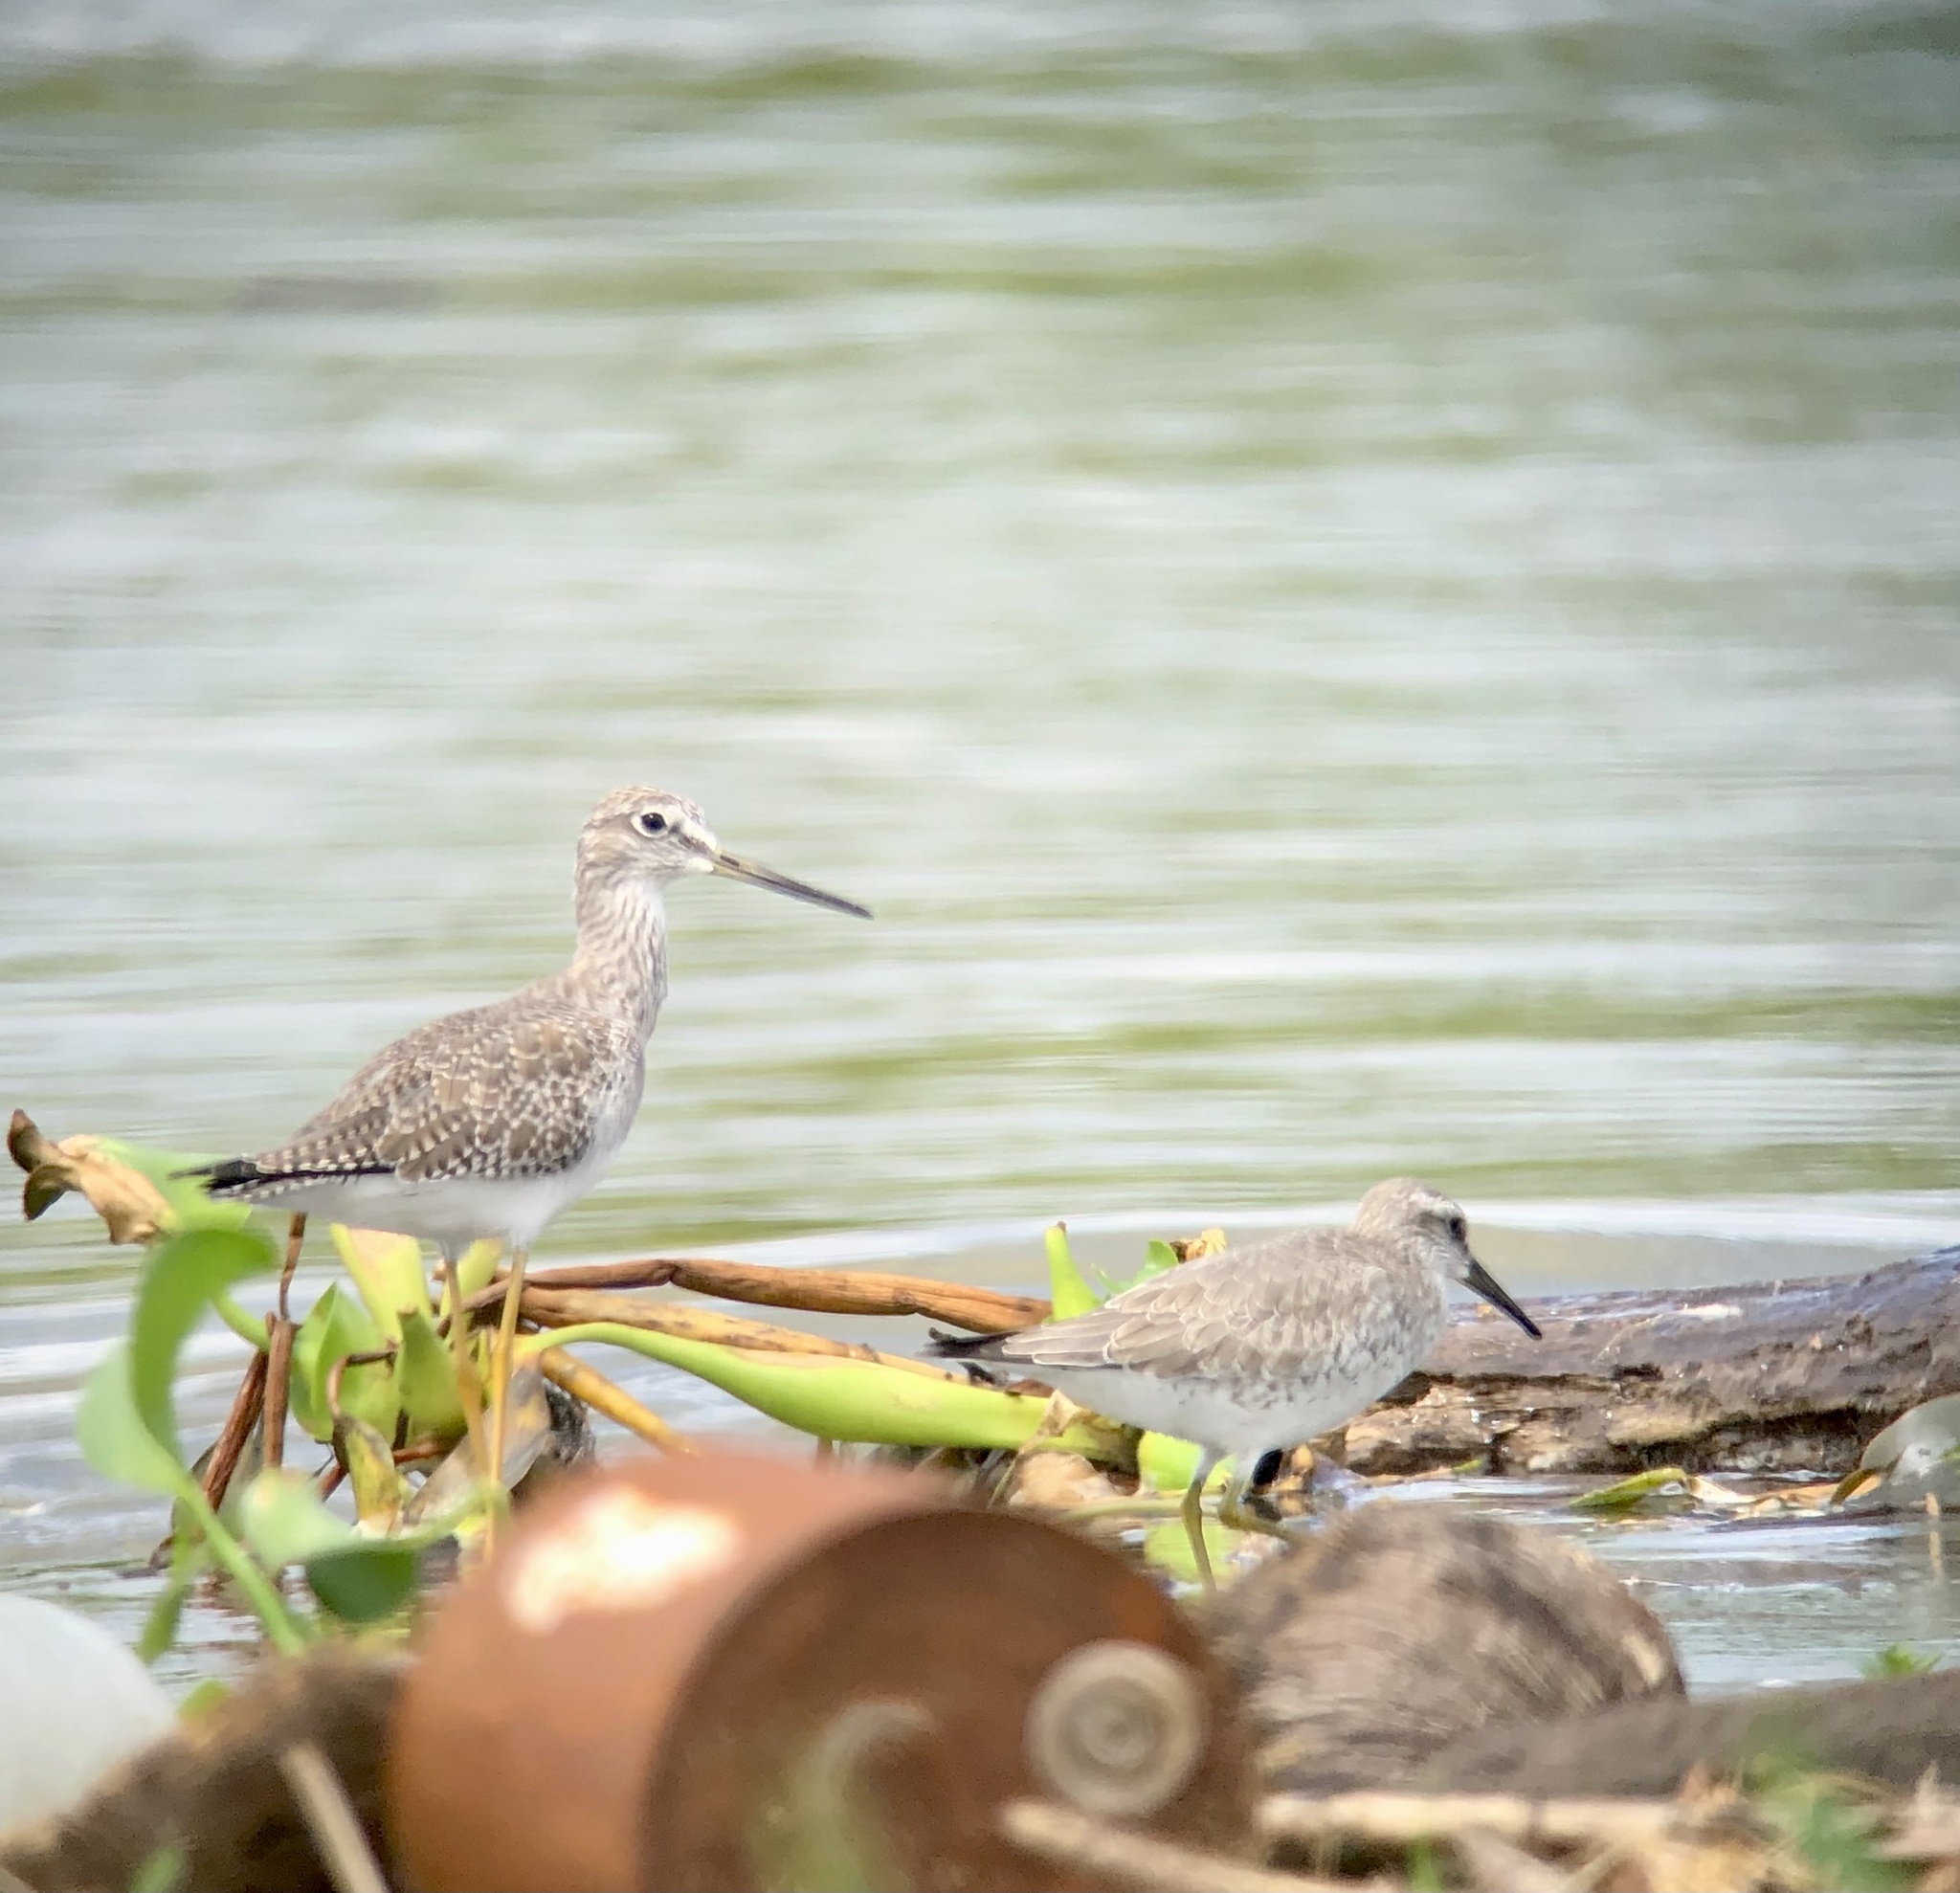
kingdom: Animalia
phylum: Chordata
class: Aves
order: Charadriiformes
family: Scolopacidae
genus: Tringa
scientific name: Tringa melanoleuca
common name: Greater yellowlegs
